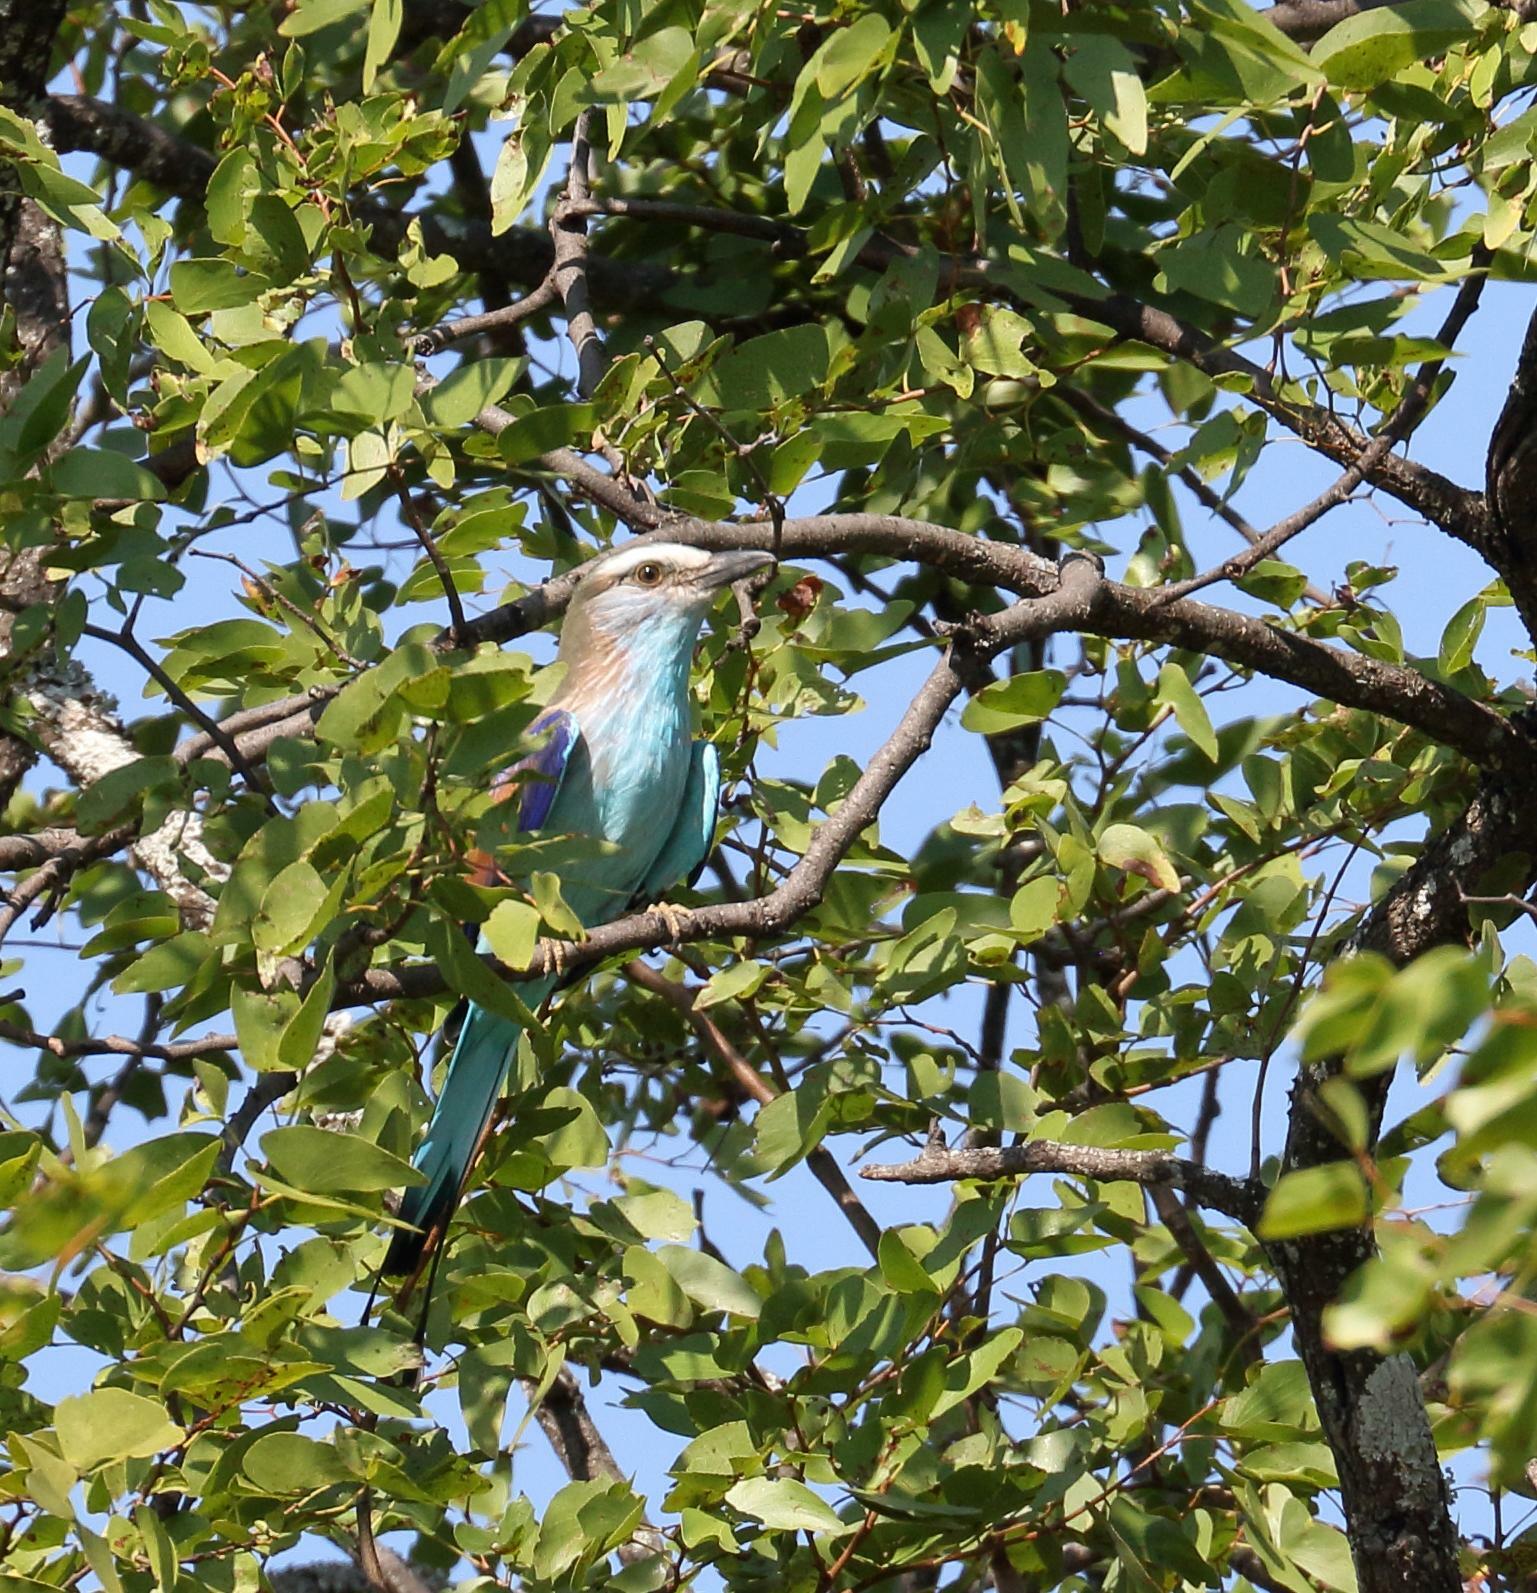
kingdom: Animalia
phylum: Chordata
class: Aves
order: Coraciiformes
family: Coraciidae
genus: Coracias
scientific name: Coracias spatulatus
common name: Racket-tailed roller
